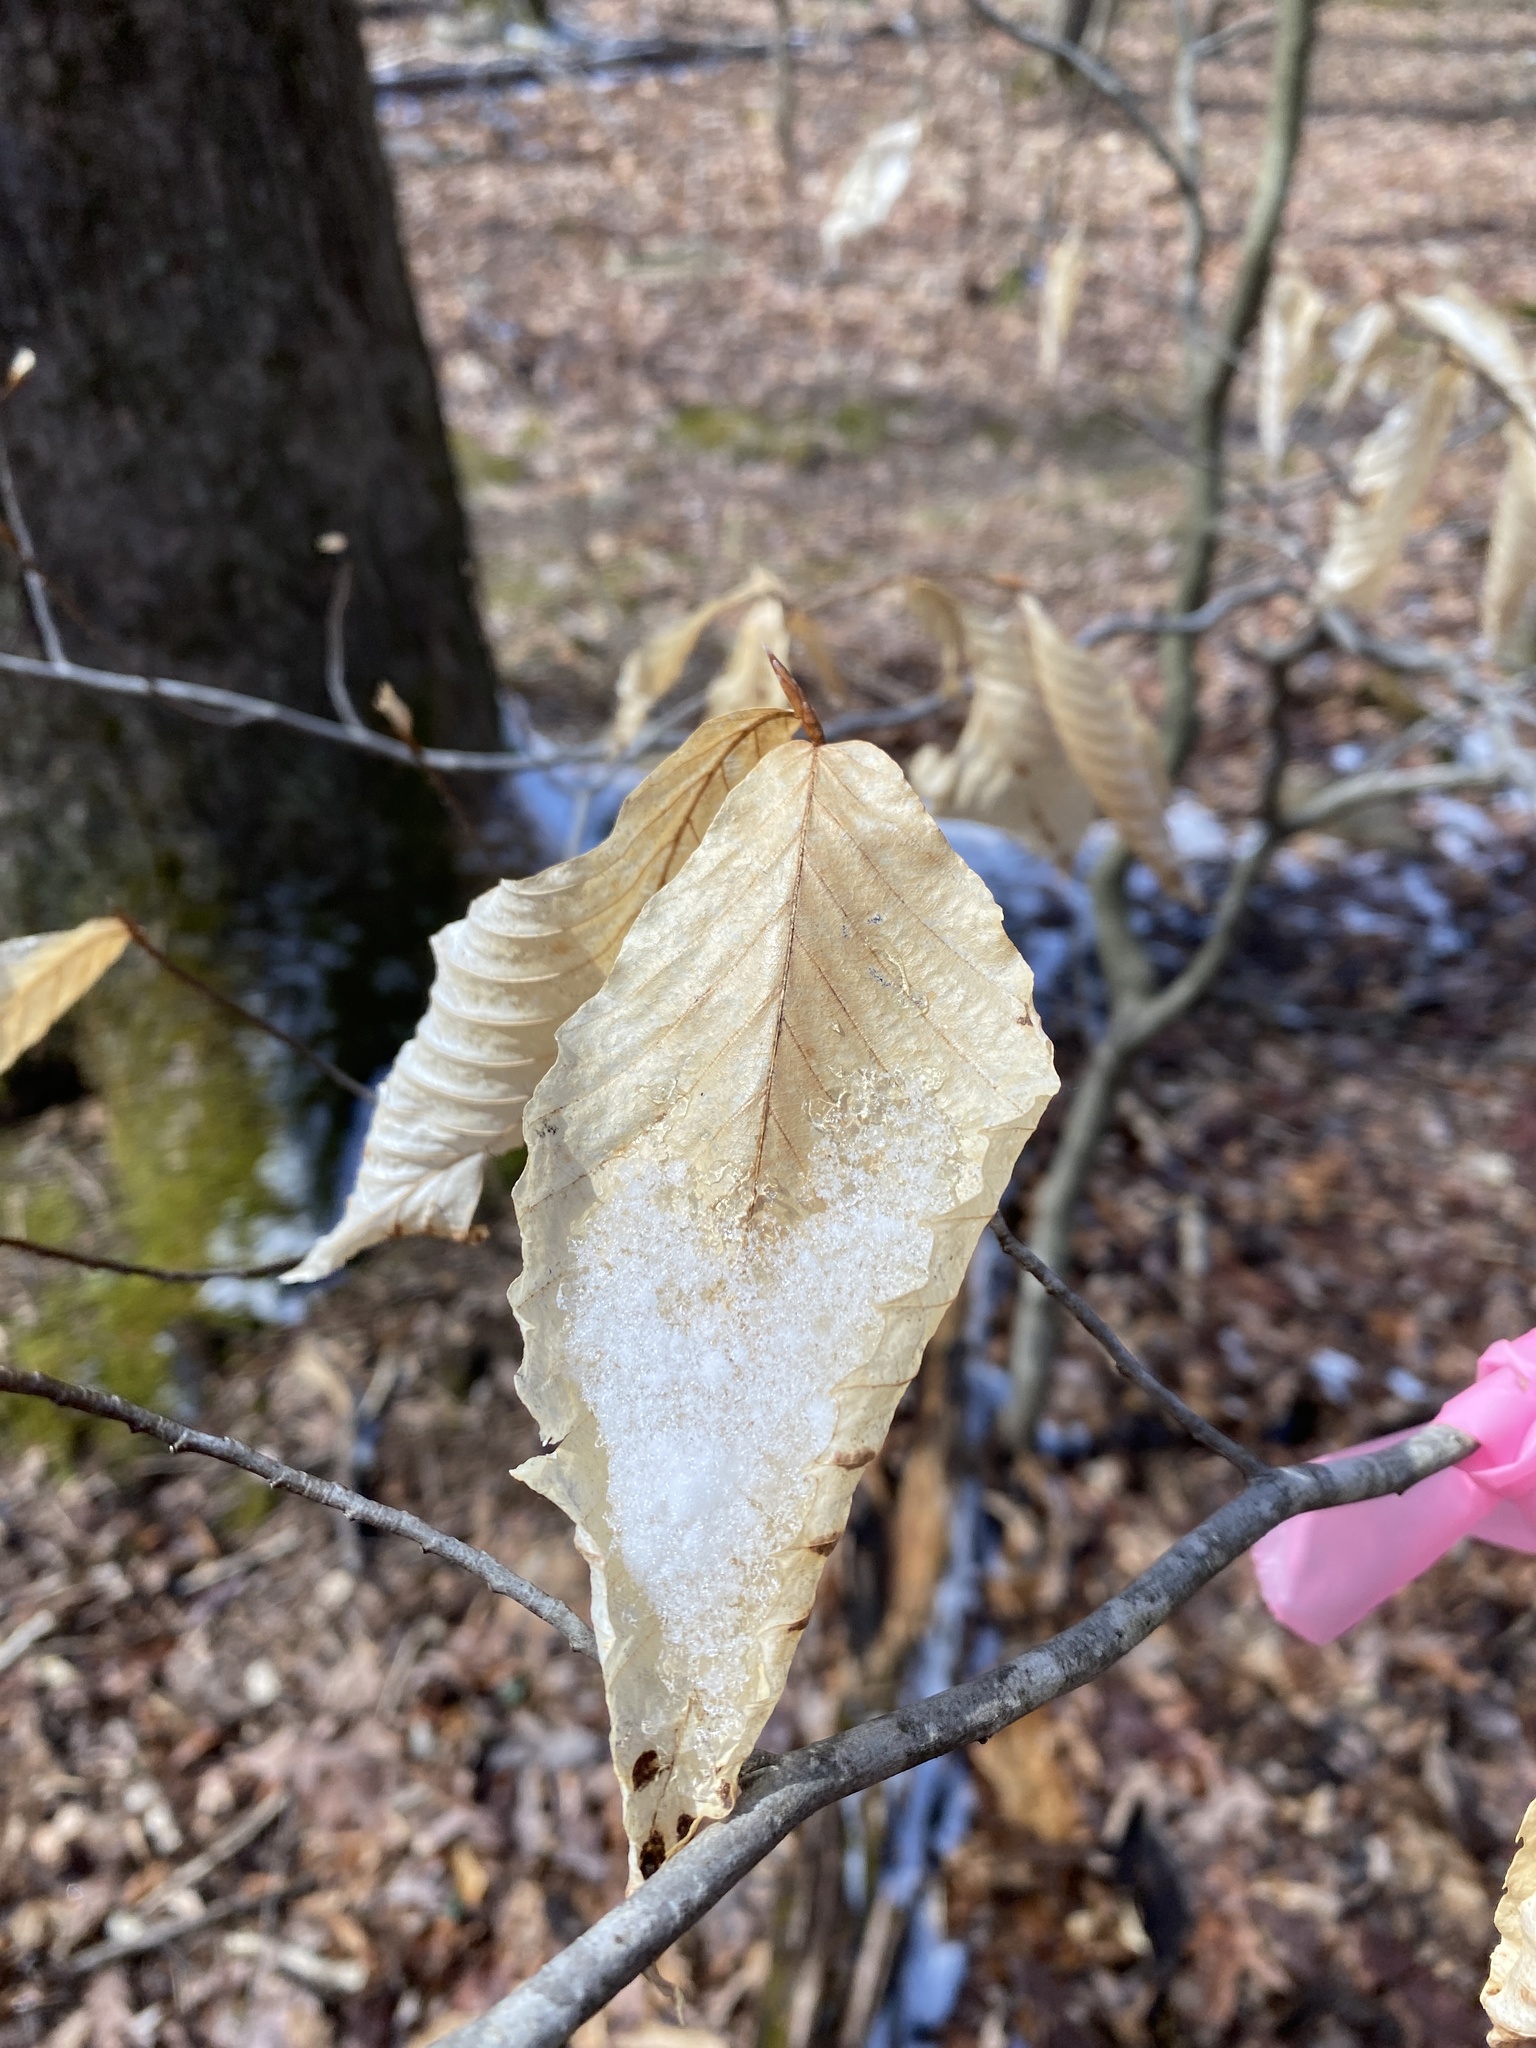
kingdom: Plantae
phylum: Tracheophyta
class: Magnoliopsida
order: Fagales
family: Fagaceae
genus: Fagus
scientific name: Fagus grandifolia
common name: American beech
